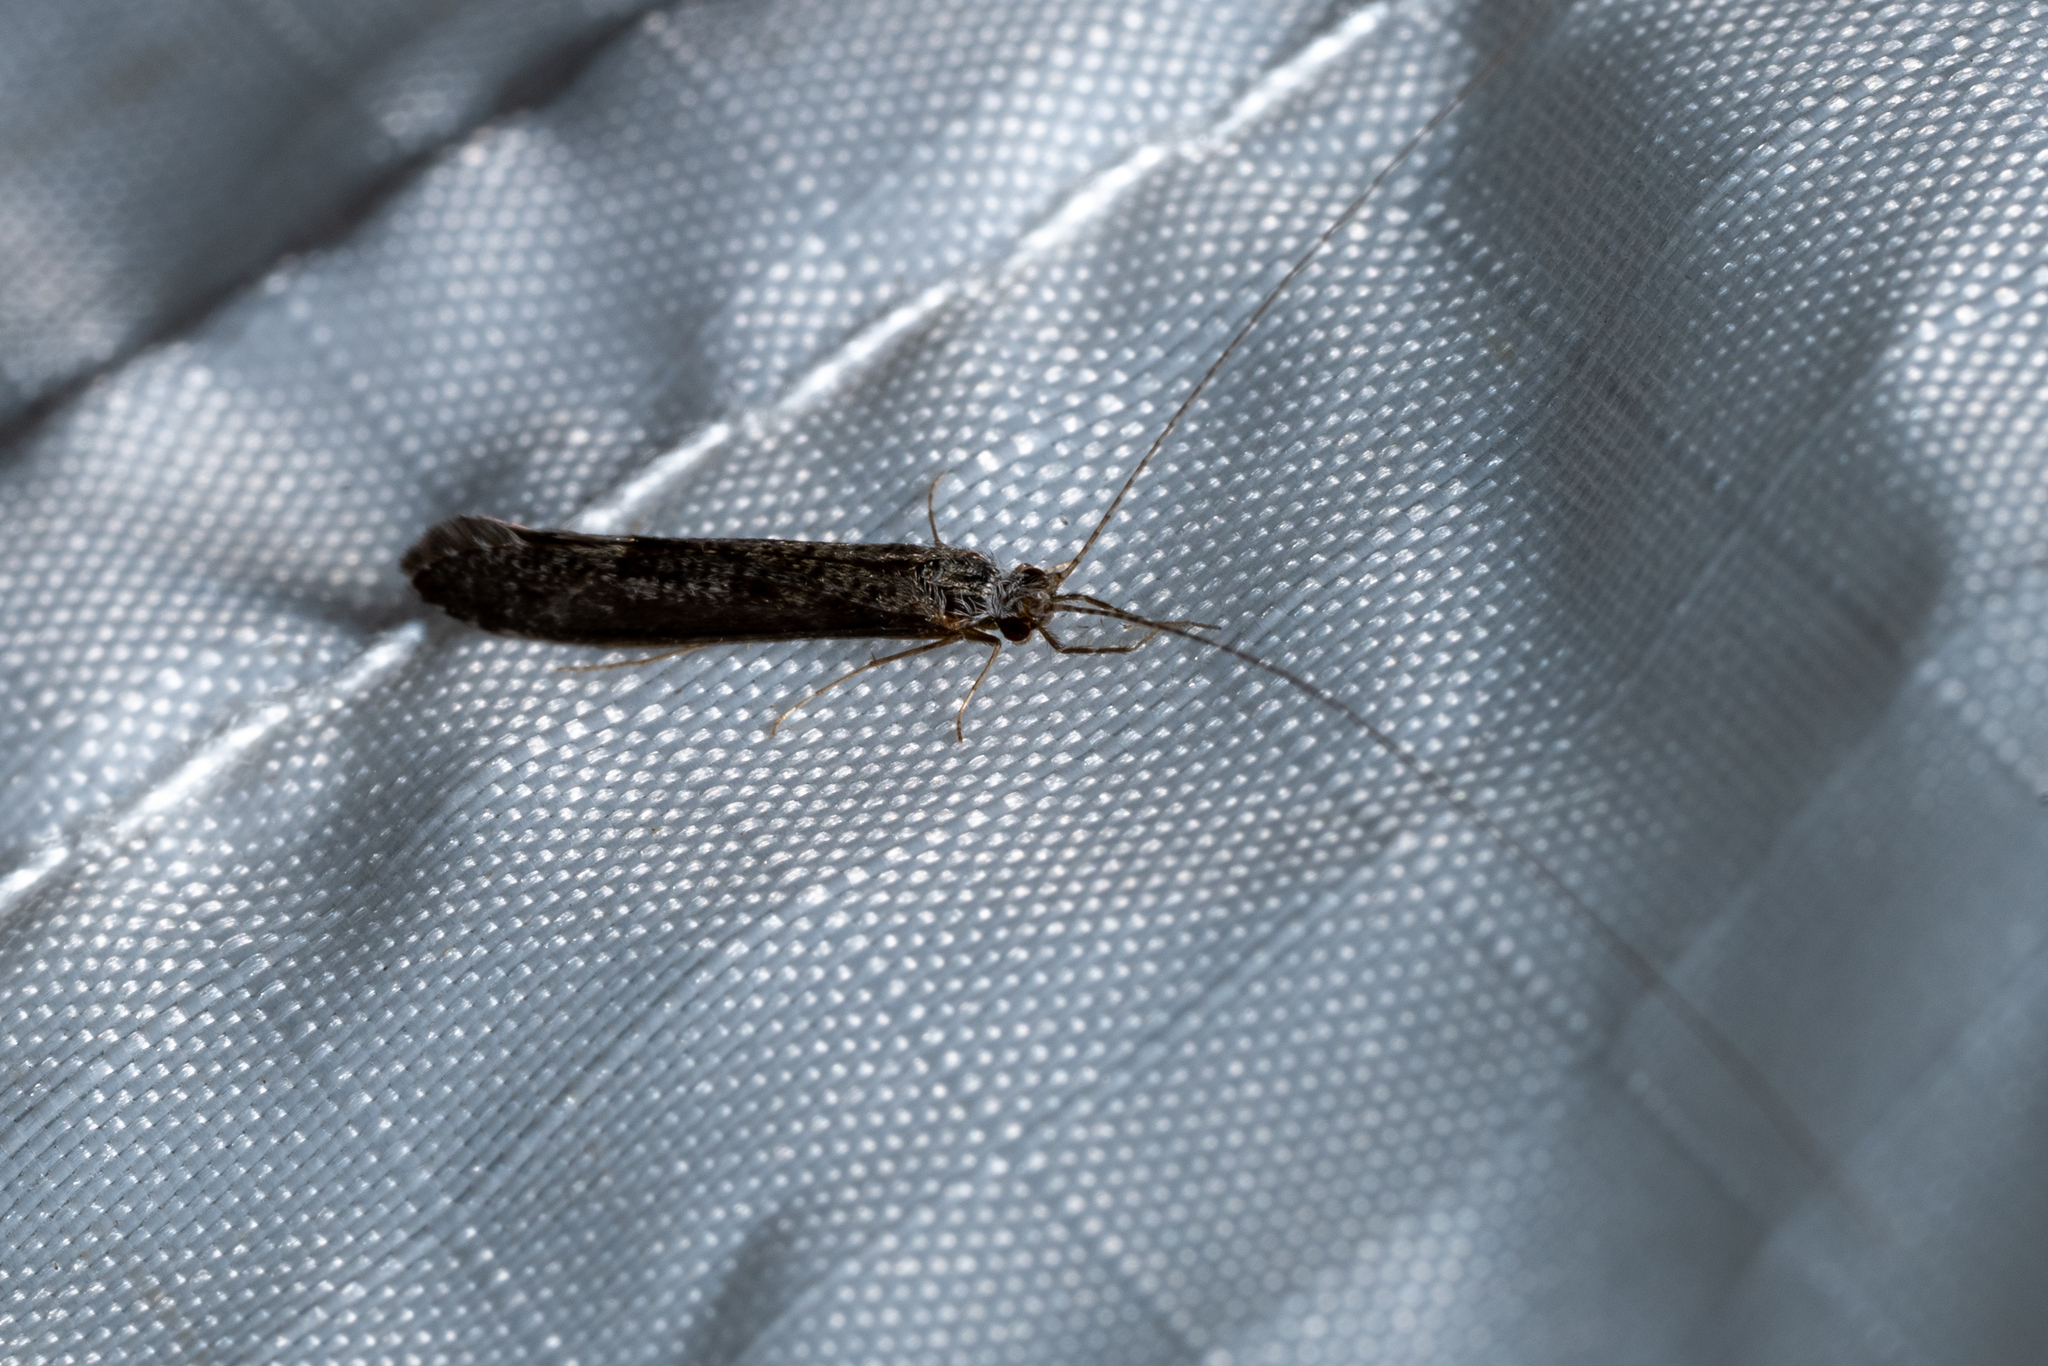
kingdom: Animalia
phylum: Arthropoda
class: Insecta
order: Trichoptera
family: Leptoceridae
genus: Leptocerus
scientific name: Leptocerus americanus
